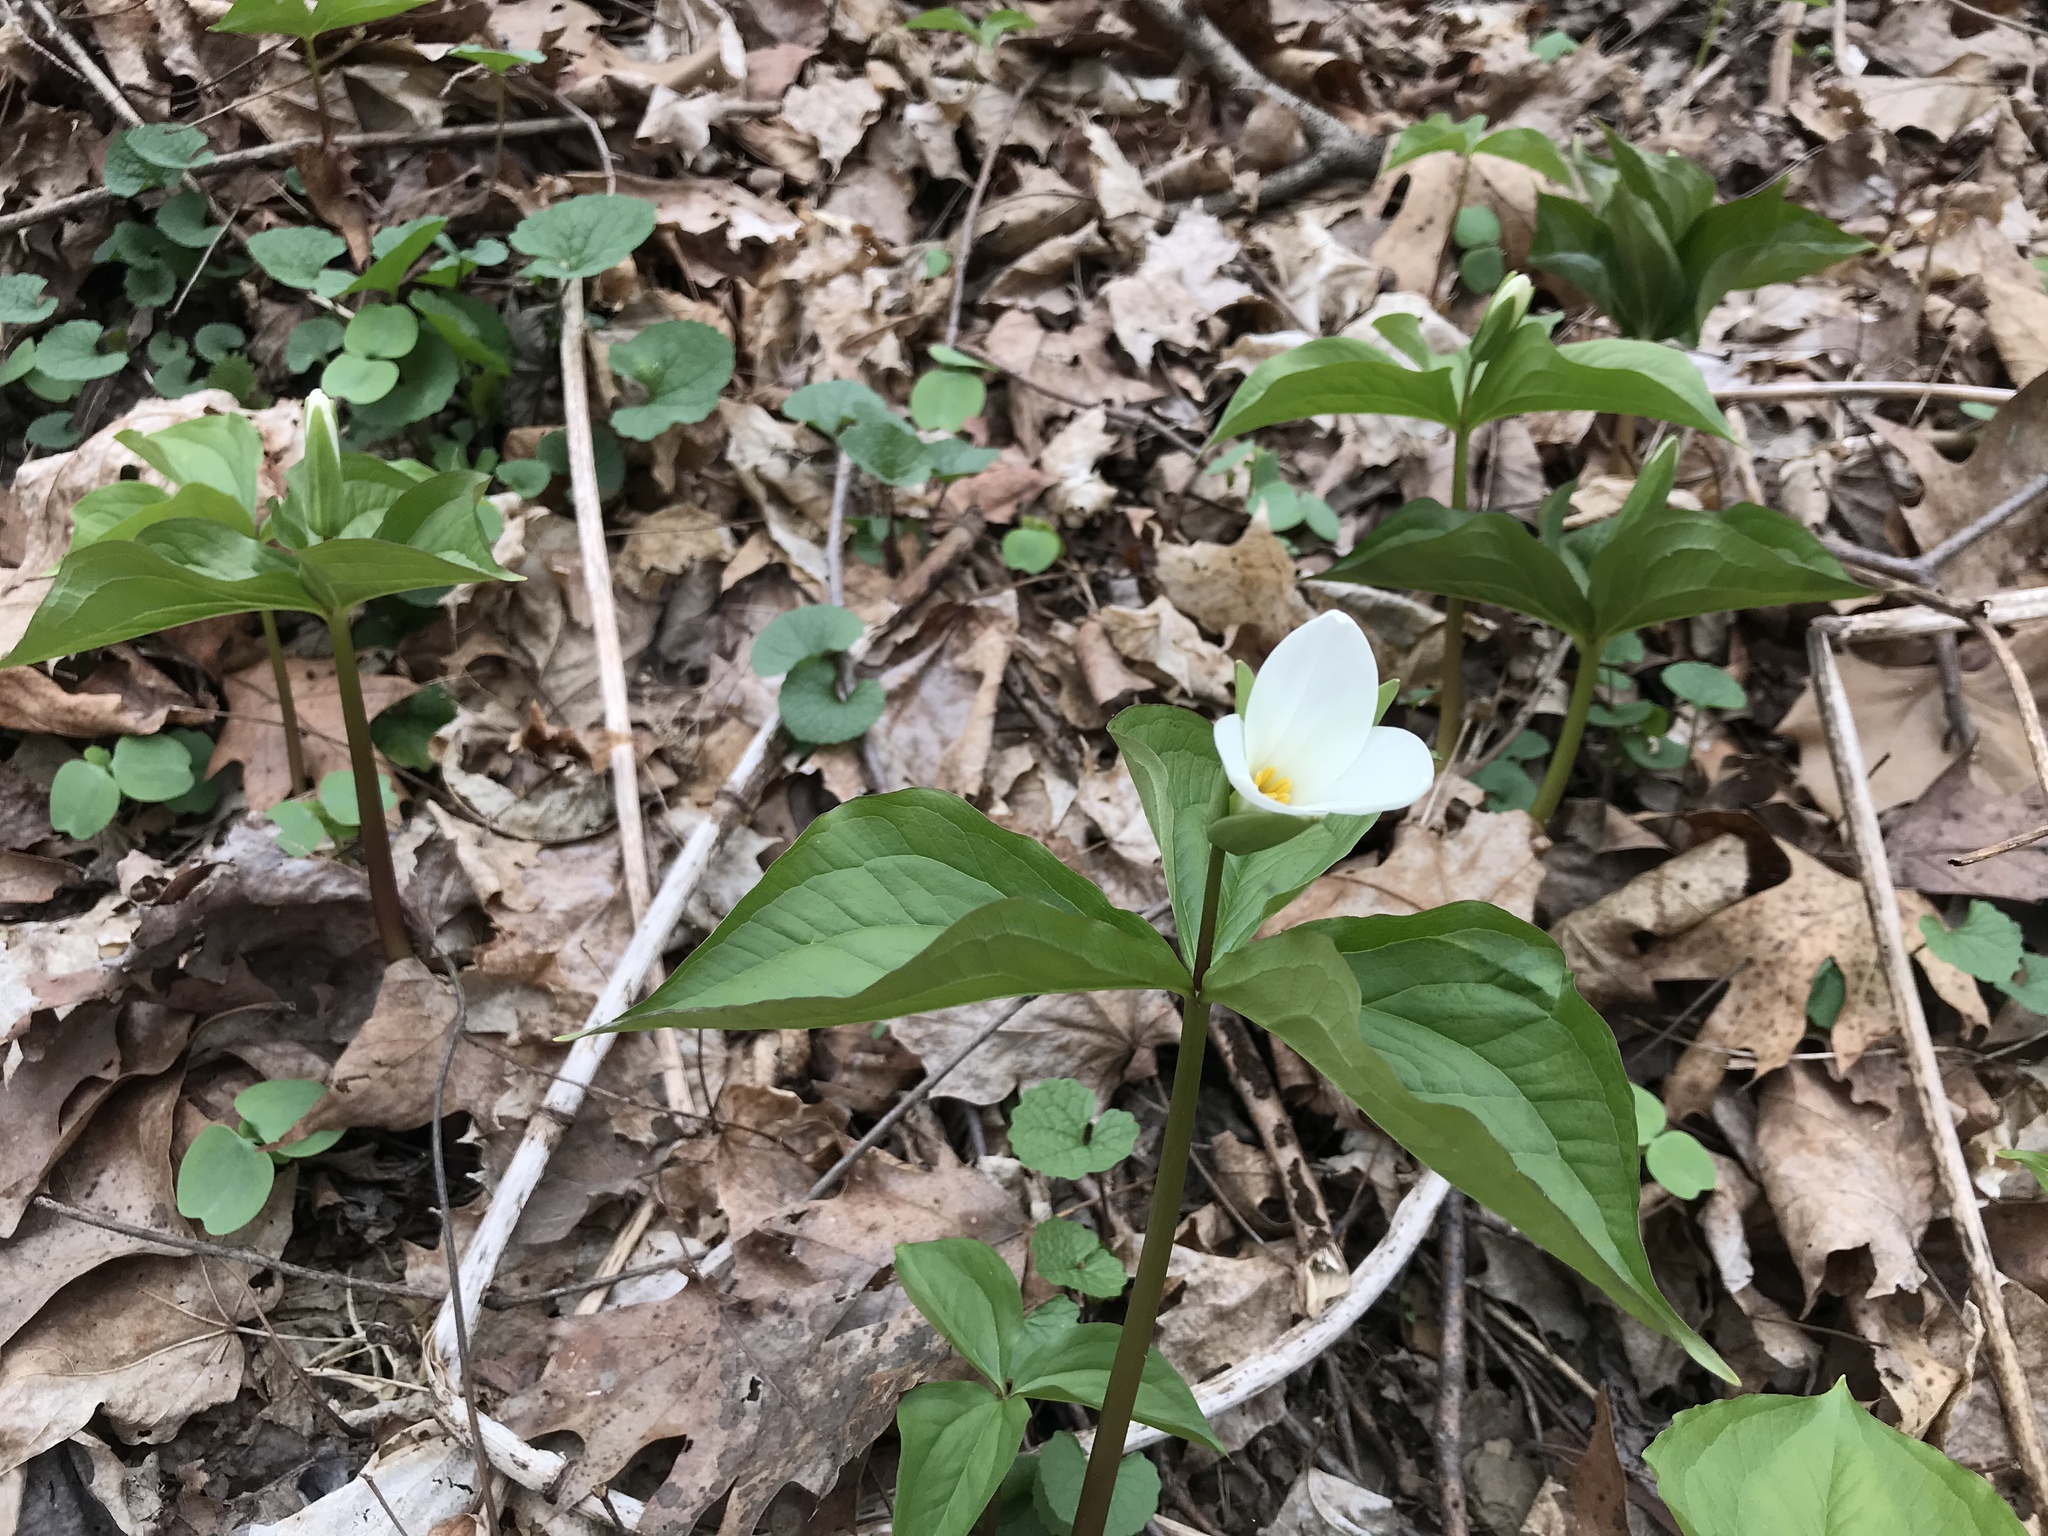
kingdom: Plantae
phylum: Tracheophyta
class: Liliopsida
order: Liliales
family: Melanthiaceae
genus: Trillium
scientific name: Trillium grandiflorum
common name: Great white trillium
